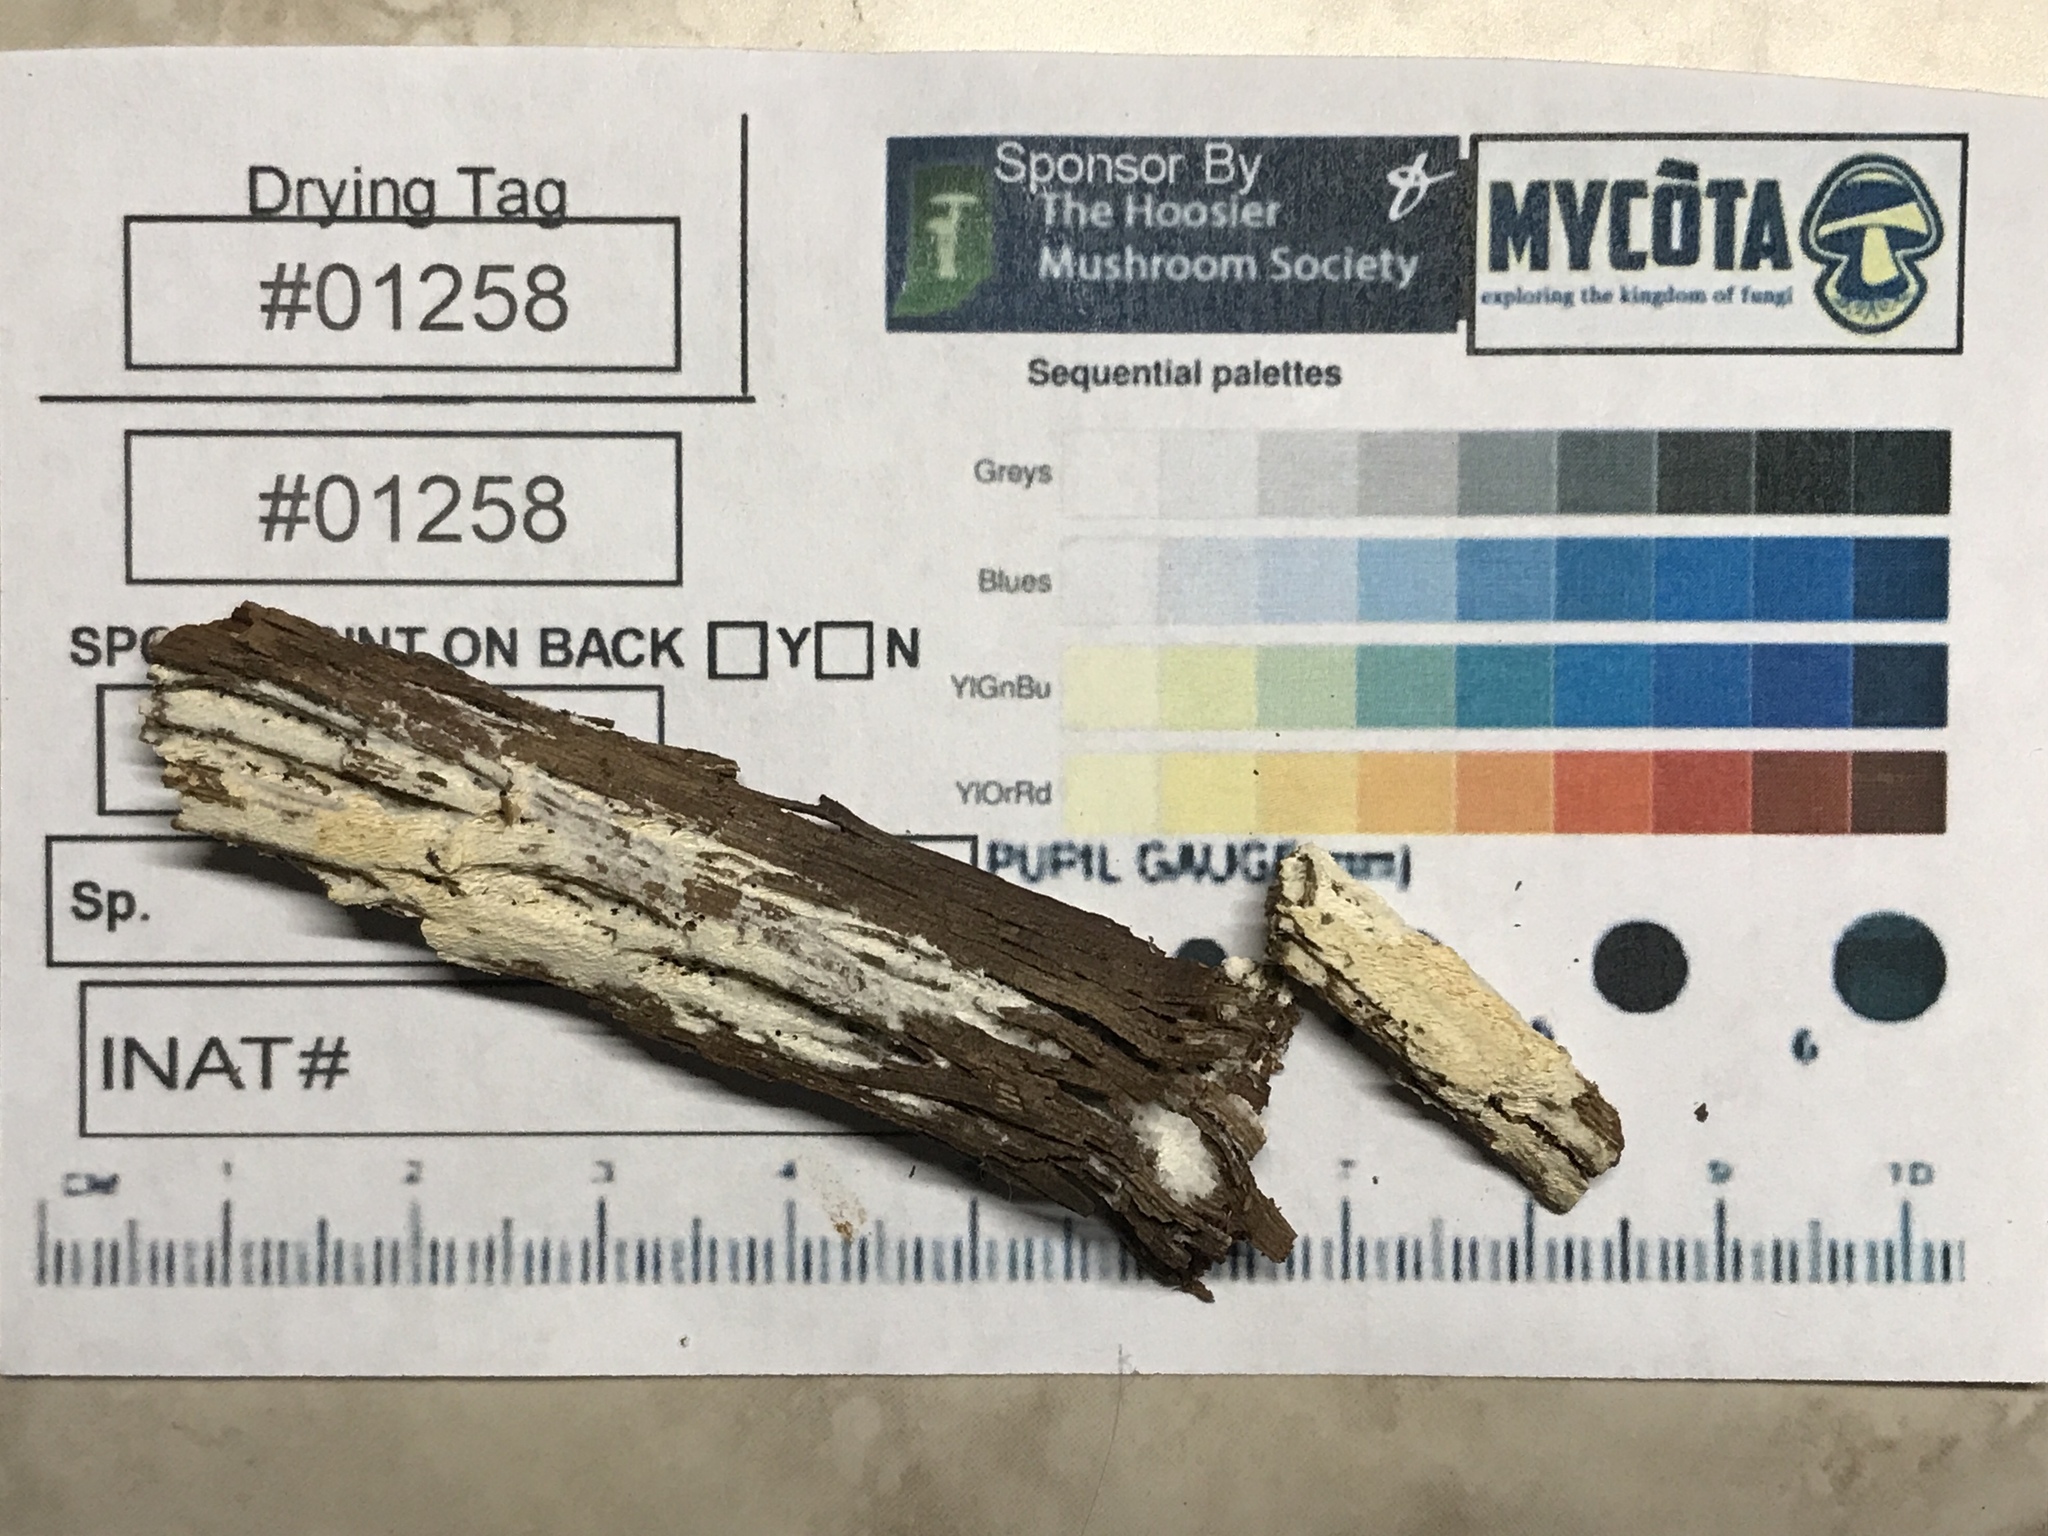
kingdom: Fungi
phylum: Basidiomycota
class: Agaricomycetes
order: Hymenochaetales
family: Schizoporaceae
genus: Xylodon
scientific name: Xylodon laurentianus
